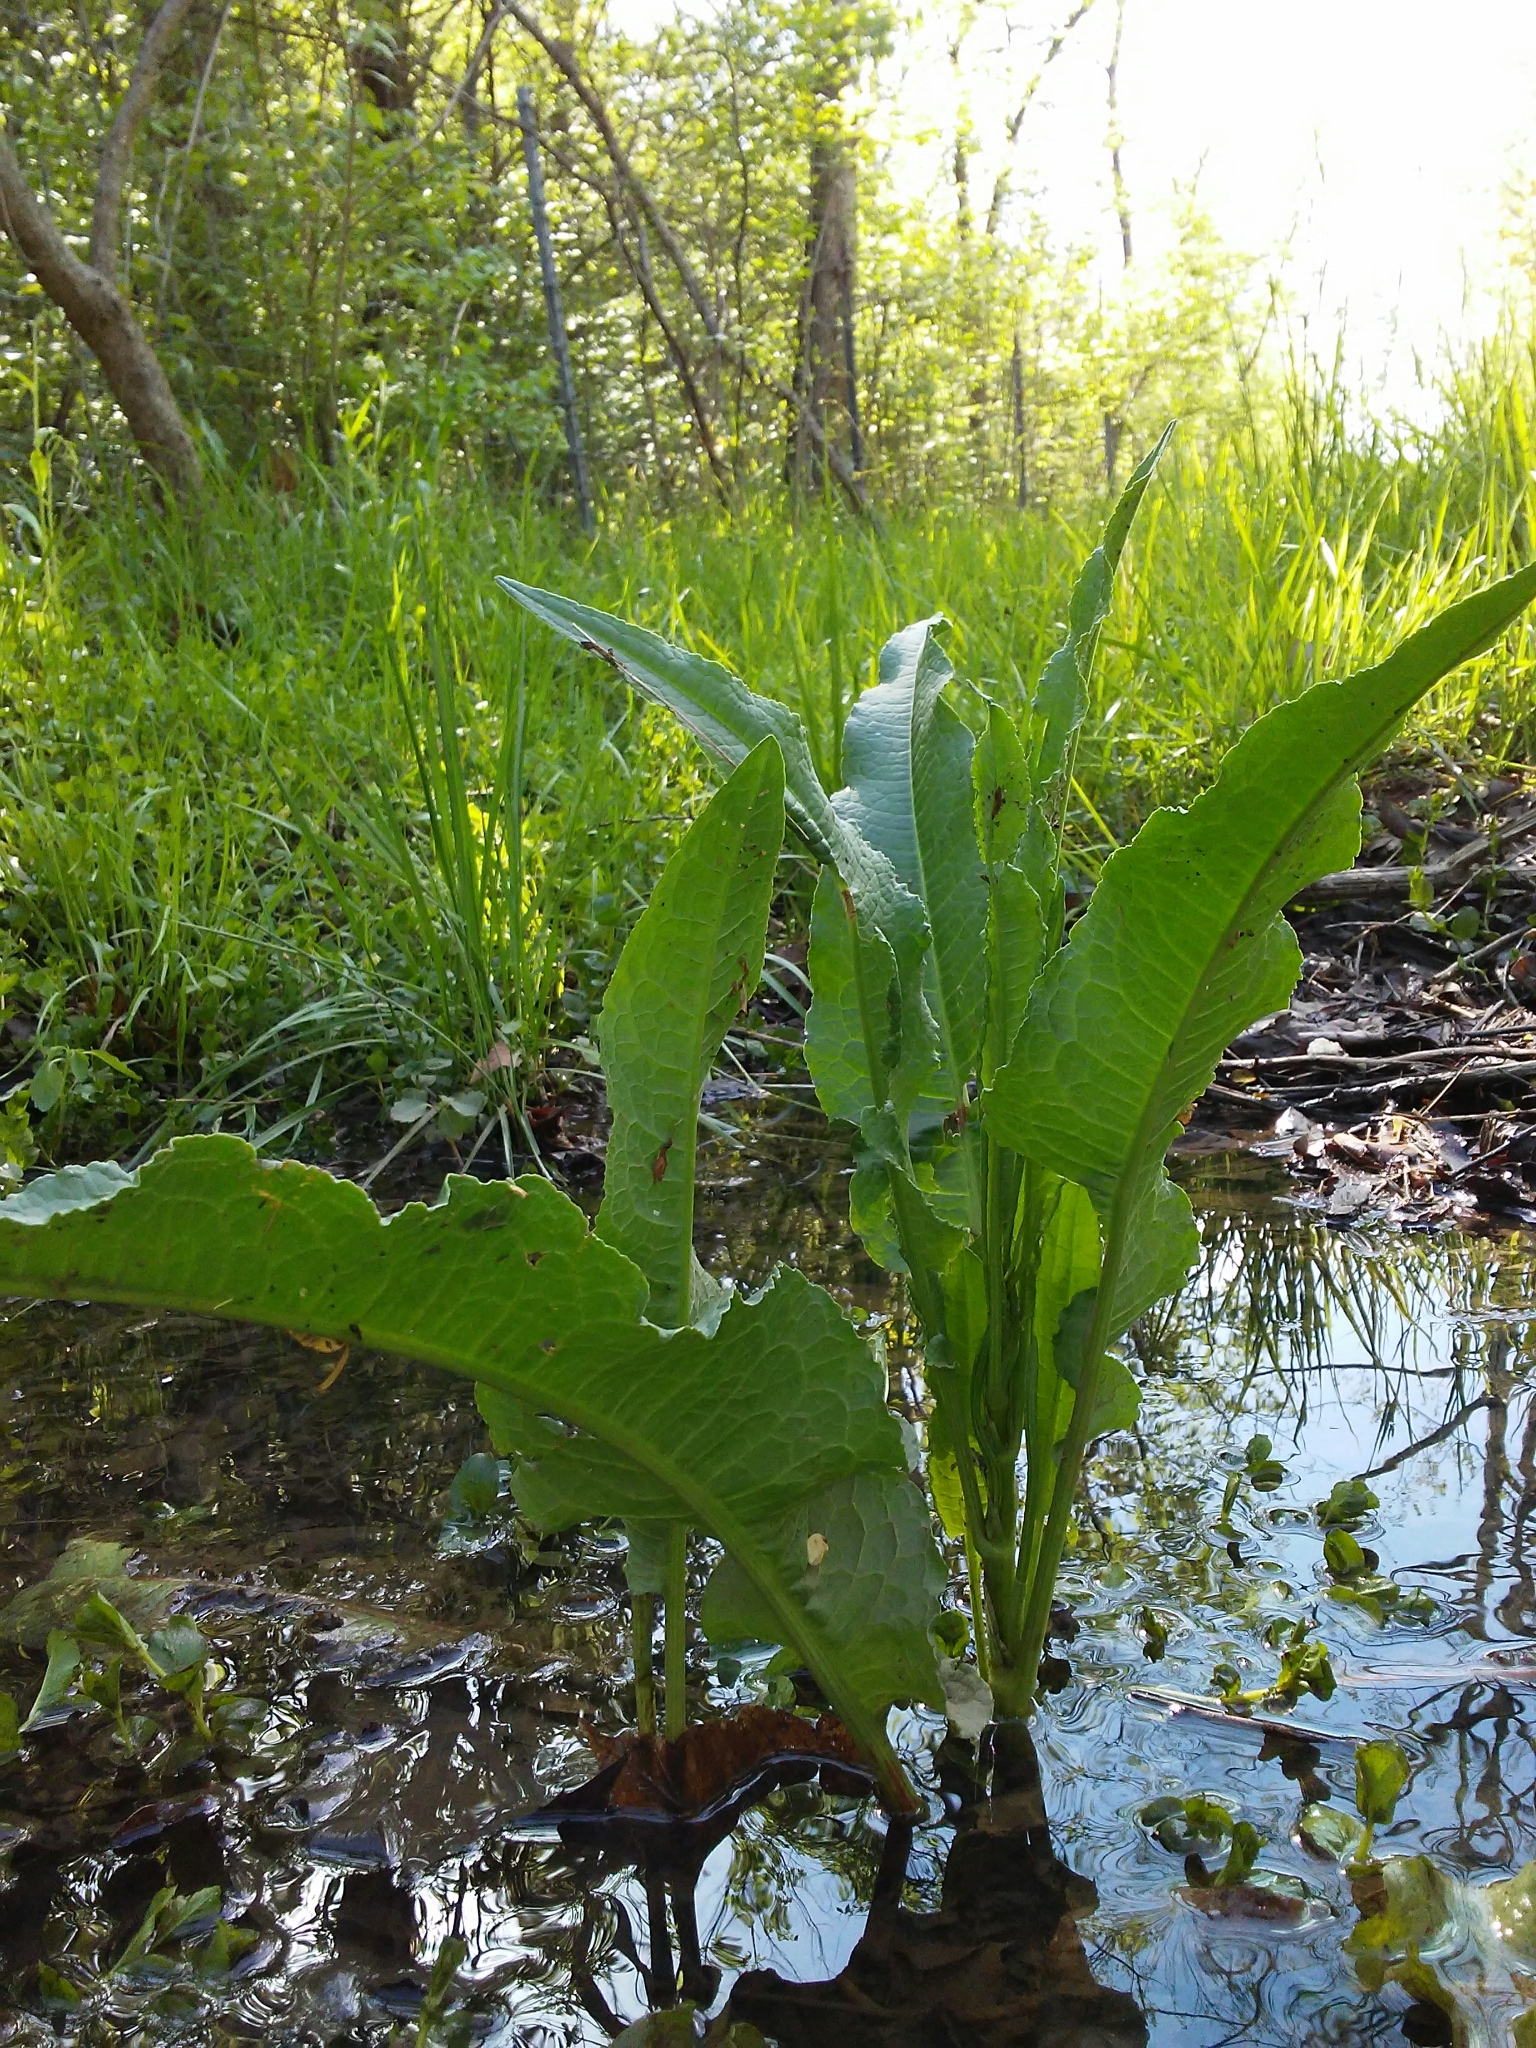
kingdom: Plantae
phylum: Tracheophyta
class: Magnoliopsida
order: Caryophyllales
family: Polygonaceae
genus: Rumex
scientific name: Rumex crispus
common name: Curled dock
